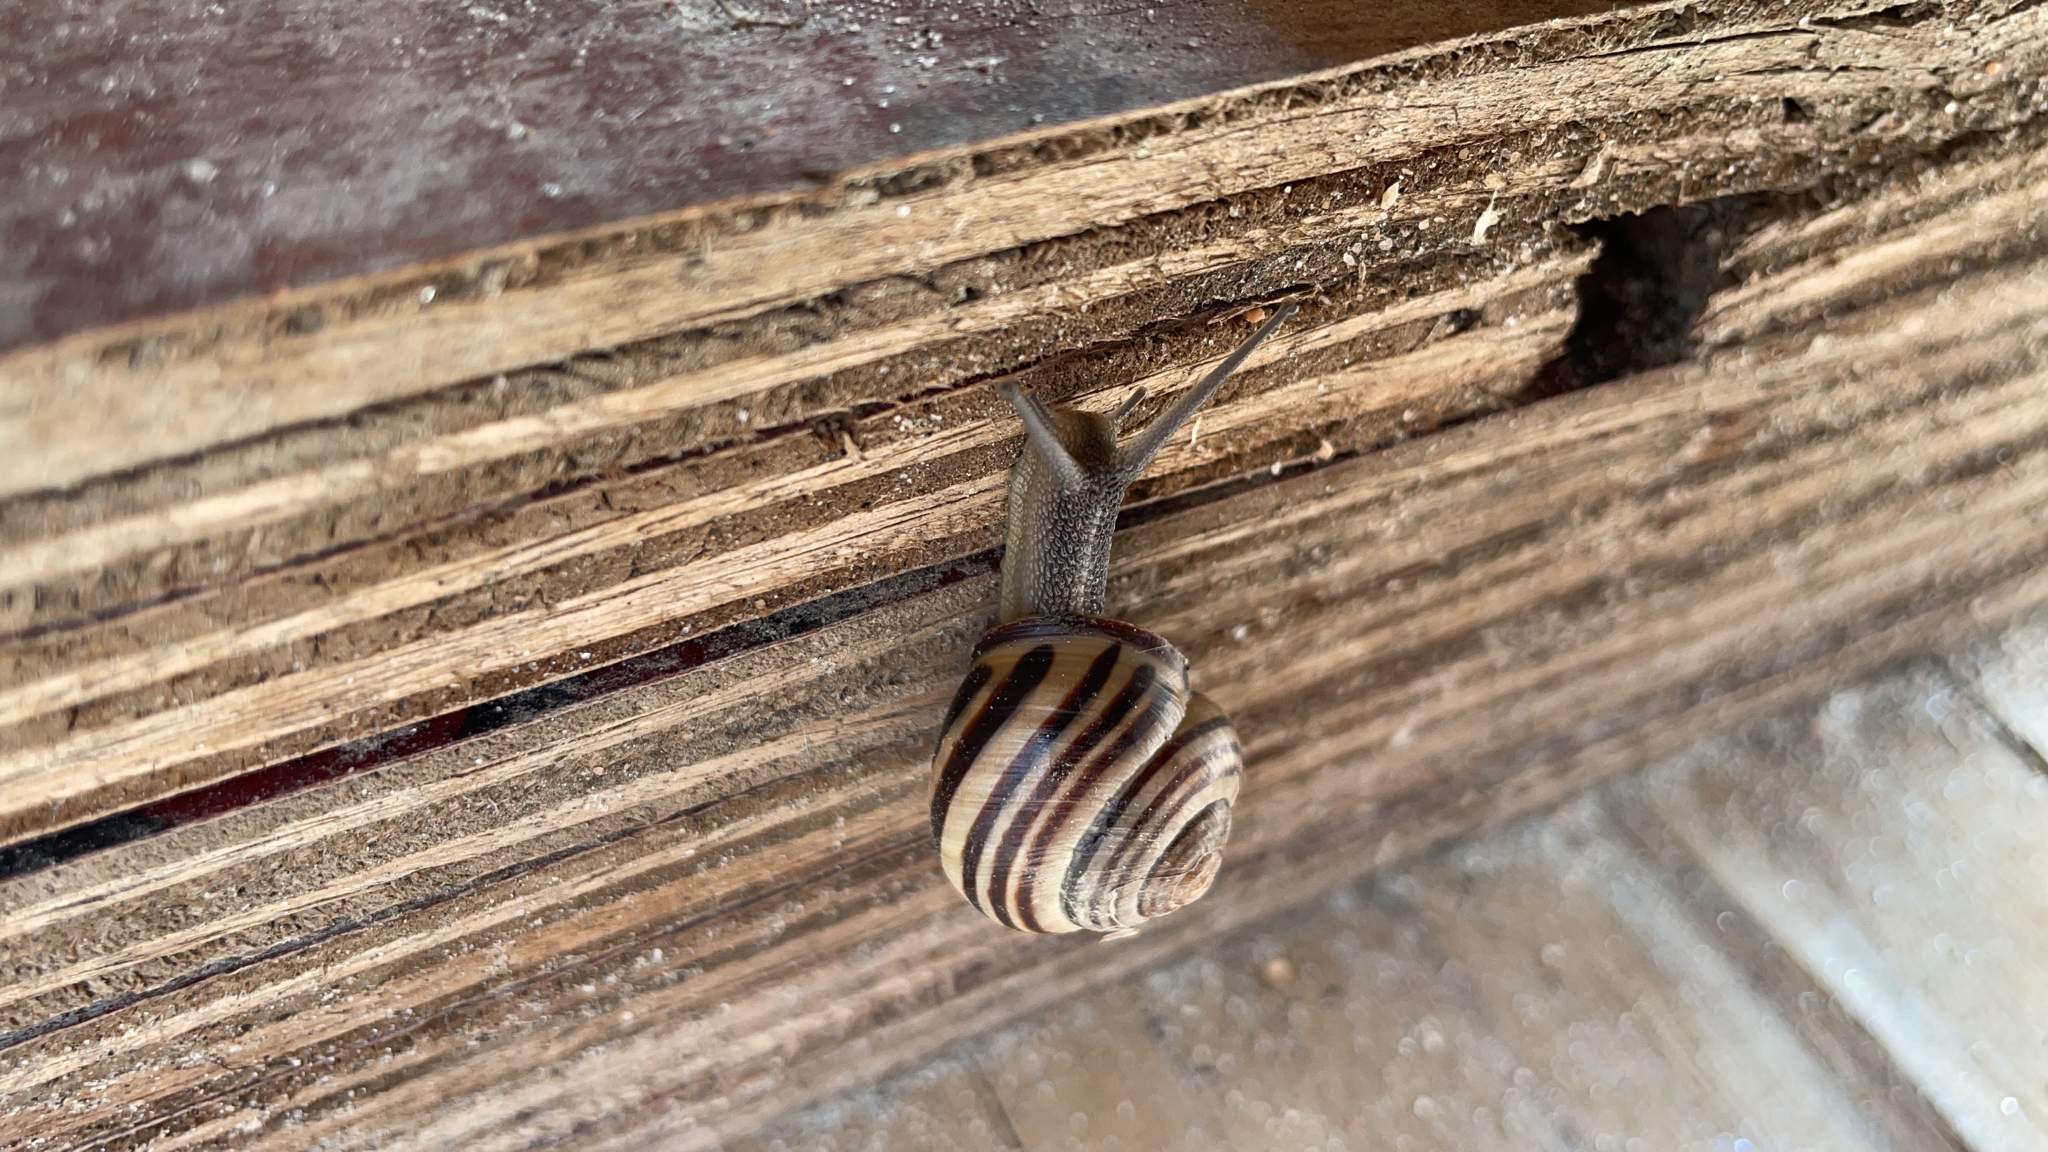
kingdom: Animalia
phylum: Mollusca
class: Gastropoda
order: Stylommatophora
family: Helicidae
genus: Cepaea
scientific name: Cepaea nemoralis
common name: Grovesnail
